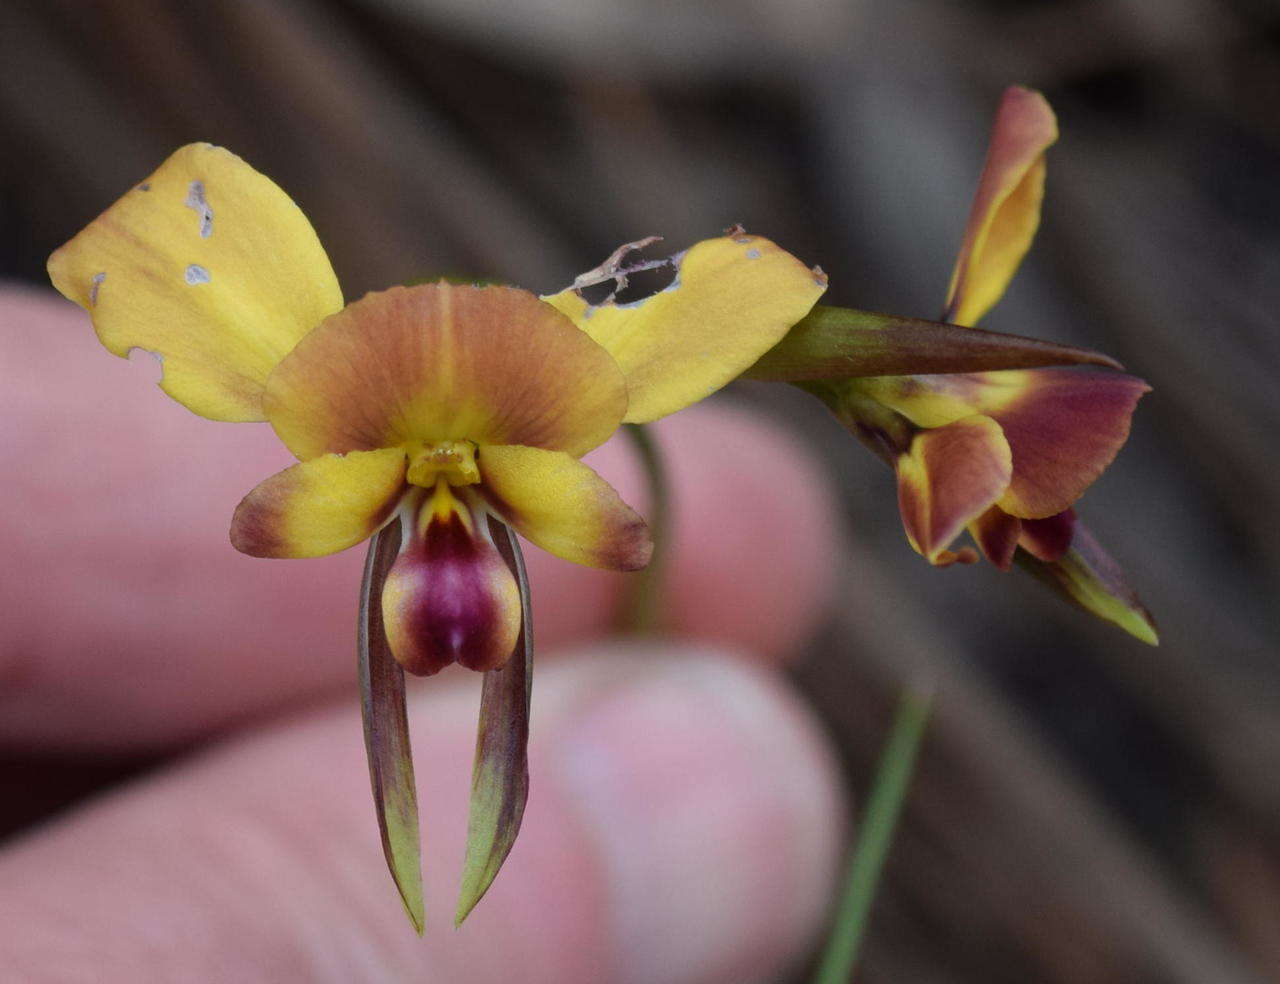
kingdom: Plantae
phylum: Tracheophyta
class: Liliopsida
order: Asparagales
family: Orchidaceae
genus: Diuris
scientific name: Diuris orientis
